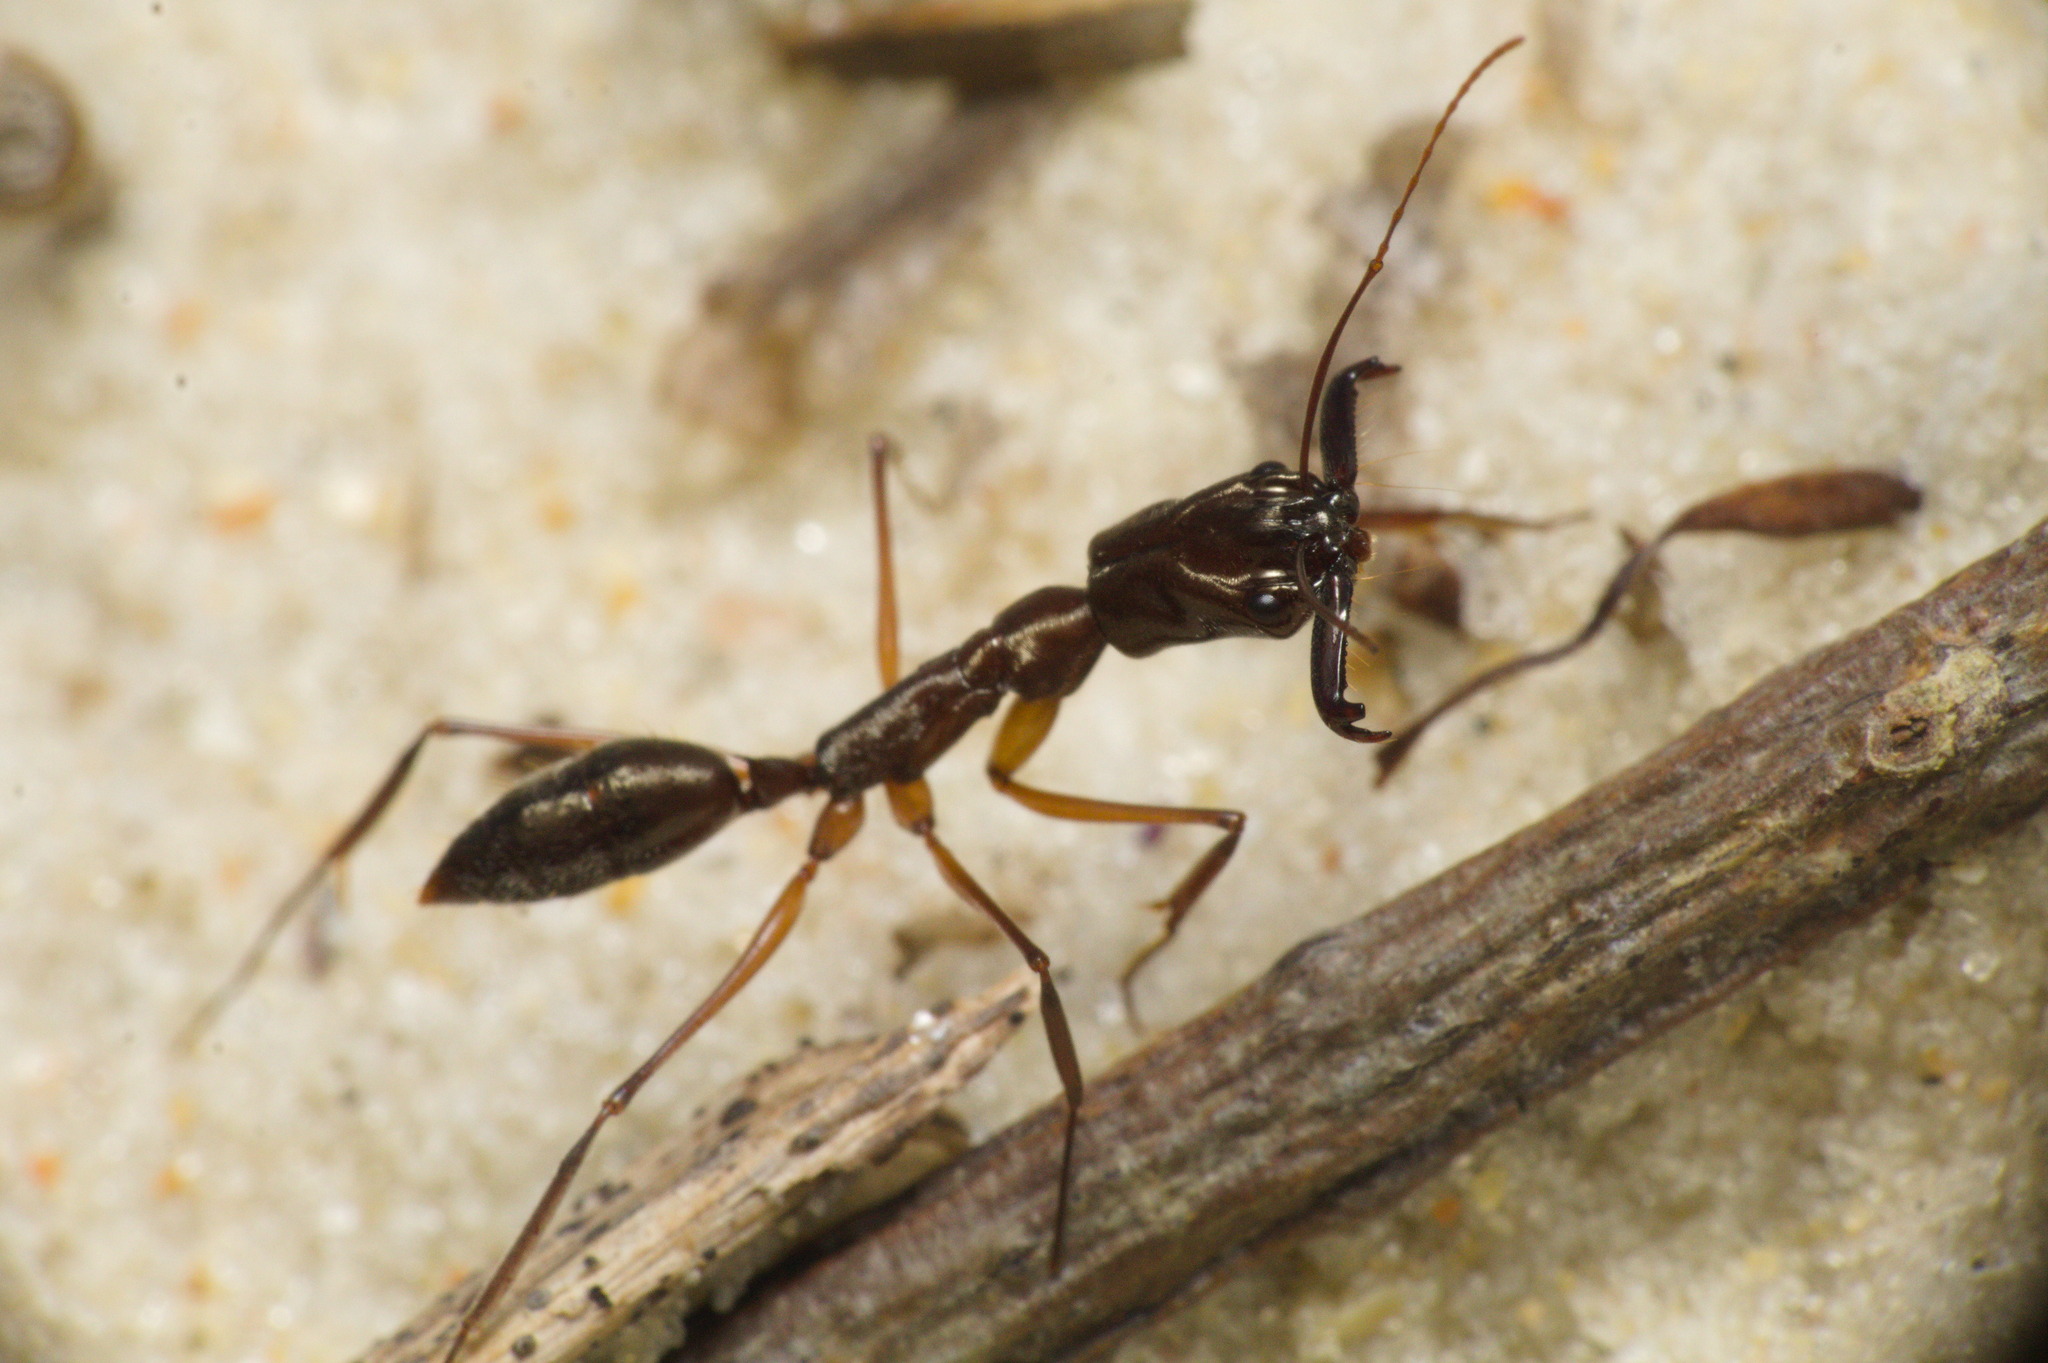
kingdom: Animalia
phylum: Arthropoda
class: Insecta
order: Hymenoptera
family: Formicidae
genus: Odontomachus
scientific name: Odontomachus chelifer
